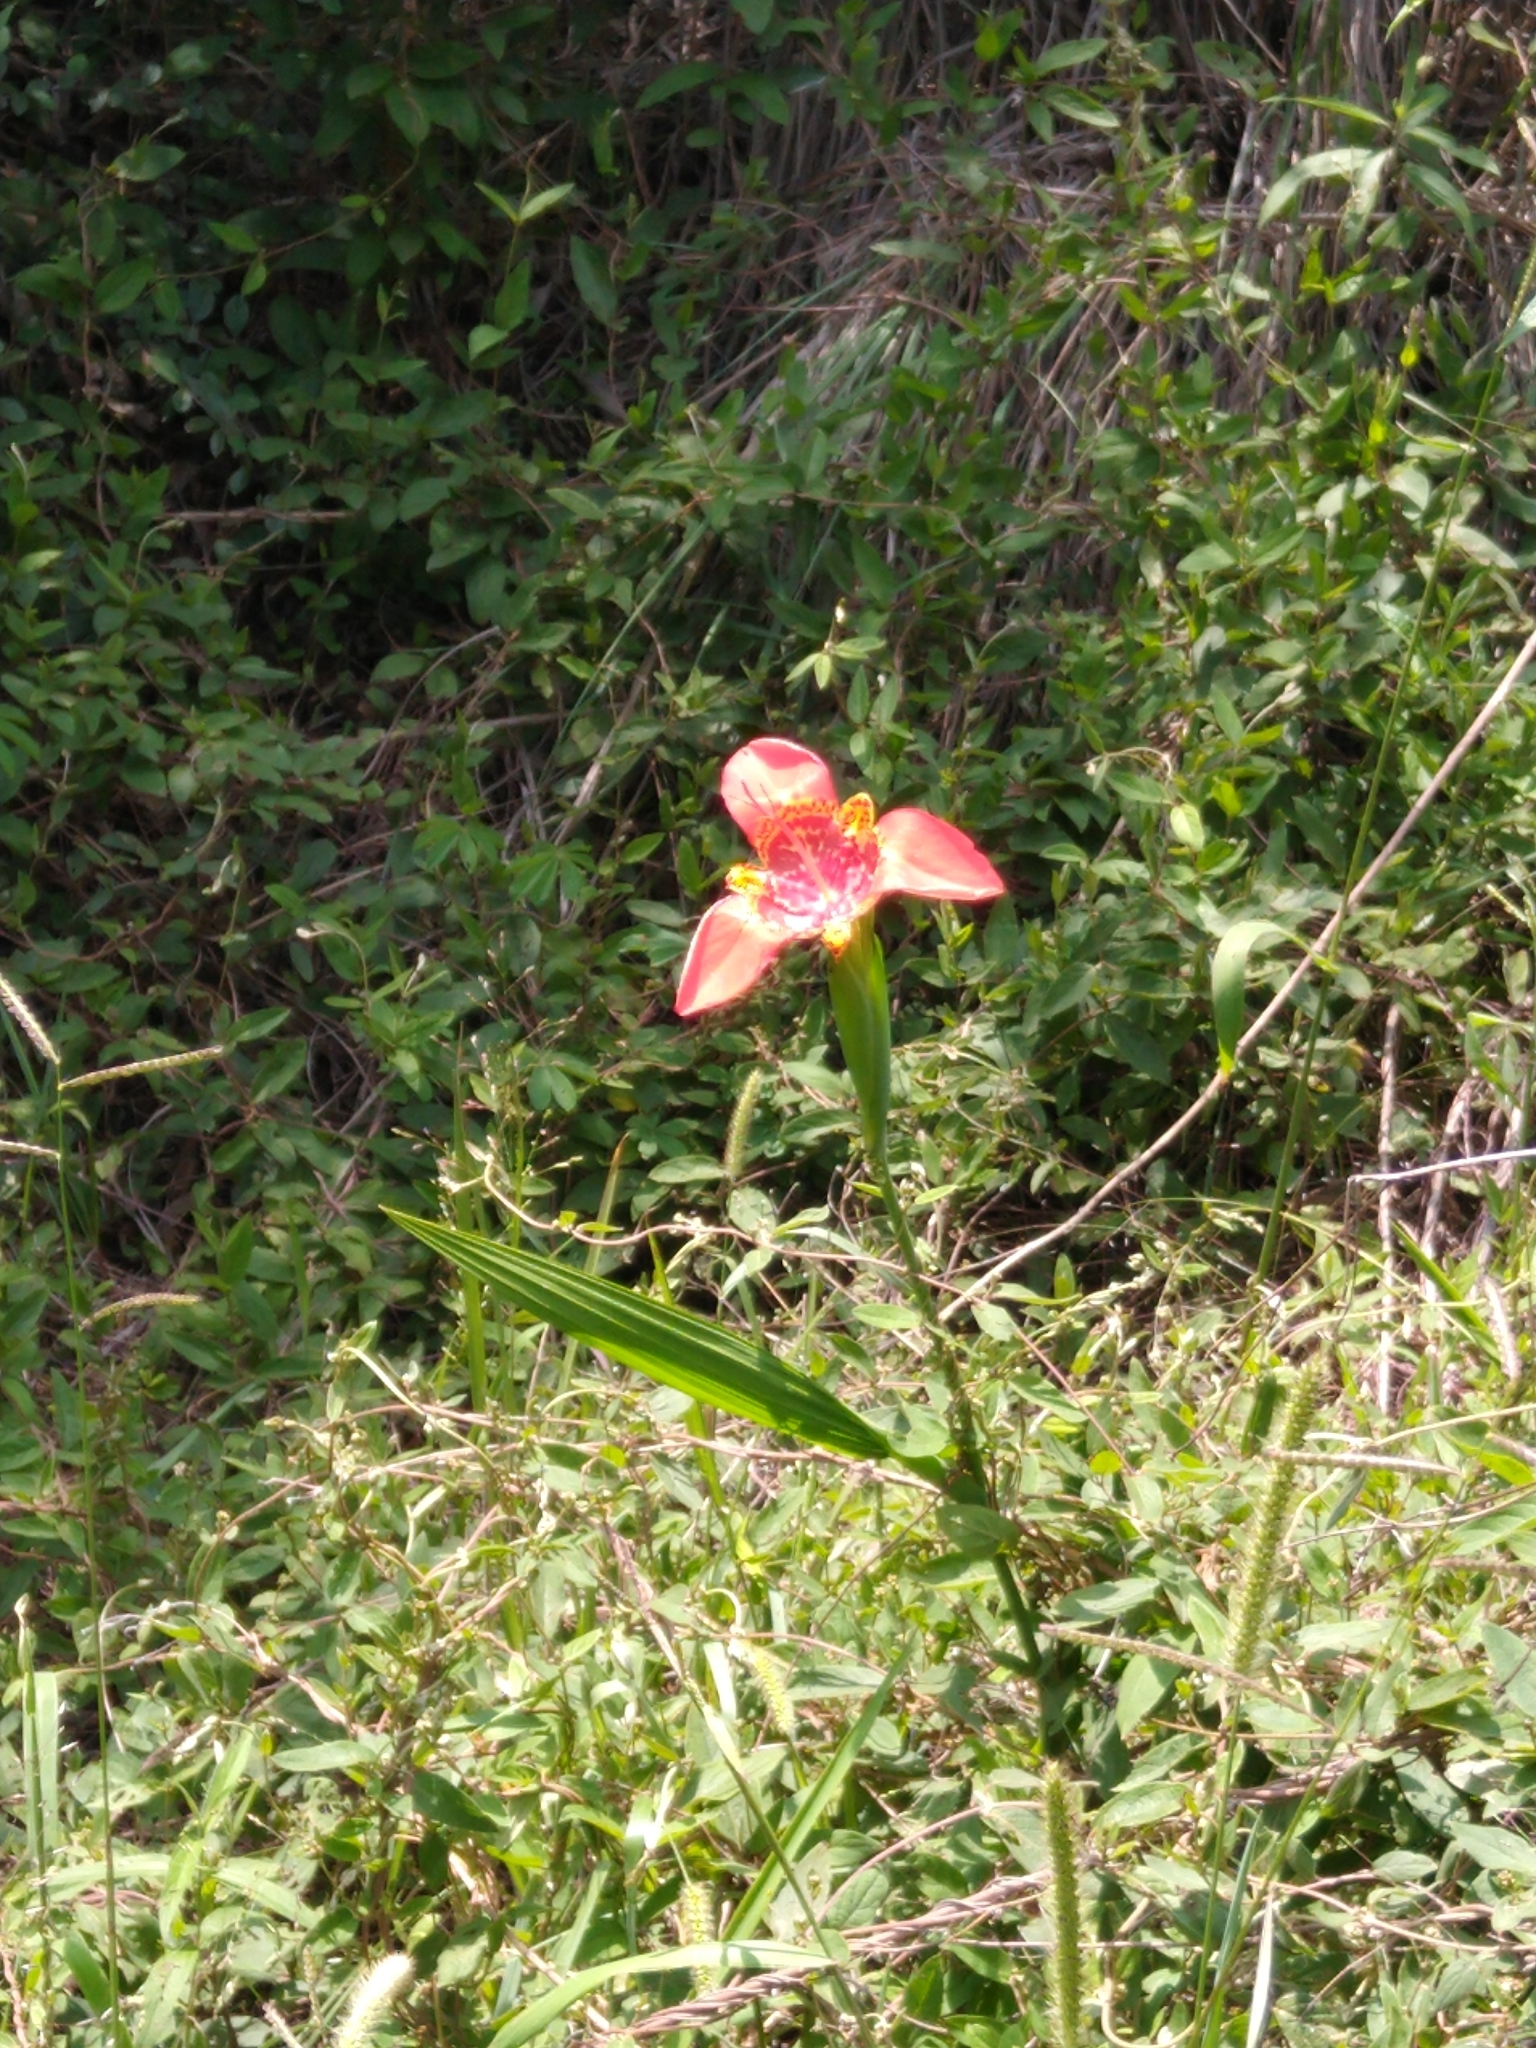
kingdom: Plantae
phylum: Tracheophyta
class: Liliopsida
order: Asparagales
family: Iridaceae
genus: Tigridia
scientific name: Tigridia pavonia
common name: Peacock-flower
